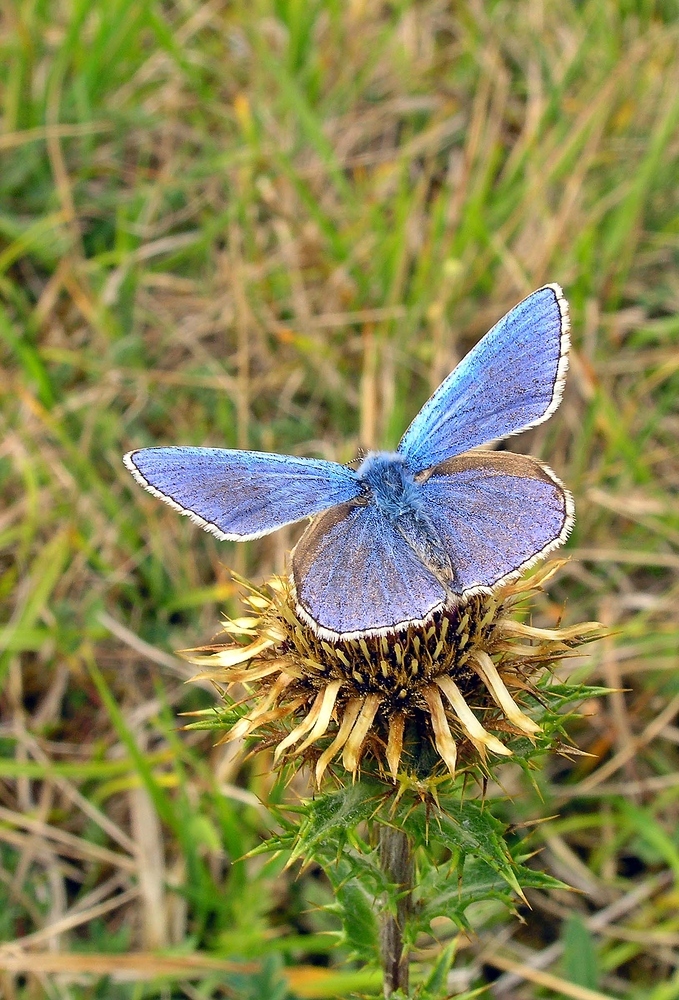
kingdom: Animalia
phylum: Arthropoda
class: Insecta
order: Lepidoptera
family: Lycaenidae
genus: Lysandra
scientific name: Lysandra bellargus
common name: Adonis blue
